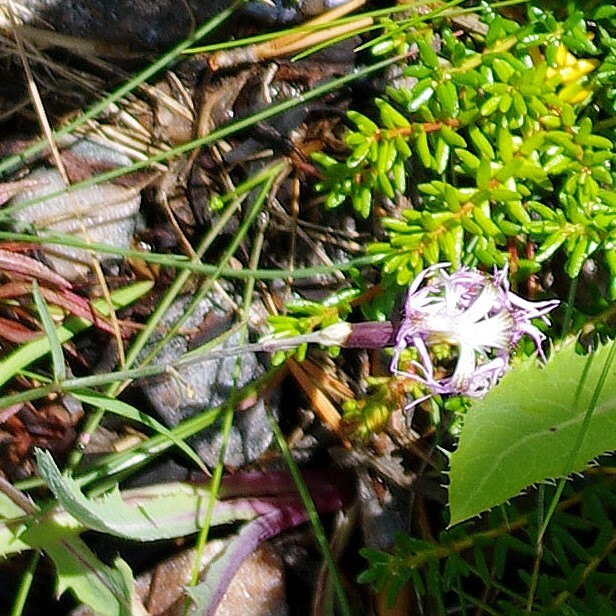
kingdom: Plantae
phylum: Tracheophyta
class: Magnoliopsida
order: Caryophyllales
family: Caryophyllaceae
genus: Dianthus
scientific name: Dianthus superbus
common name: Fringed pink
